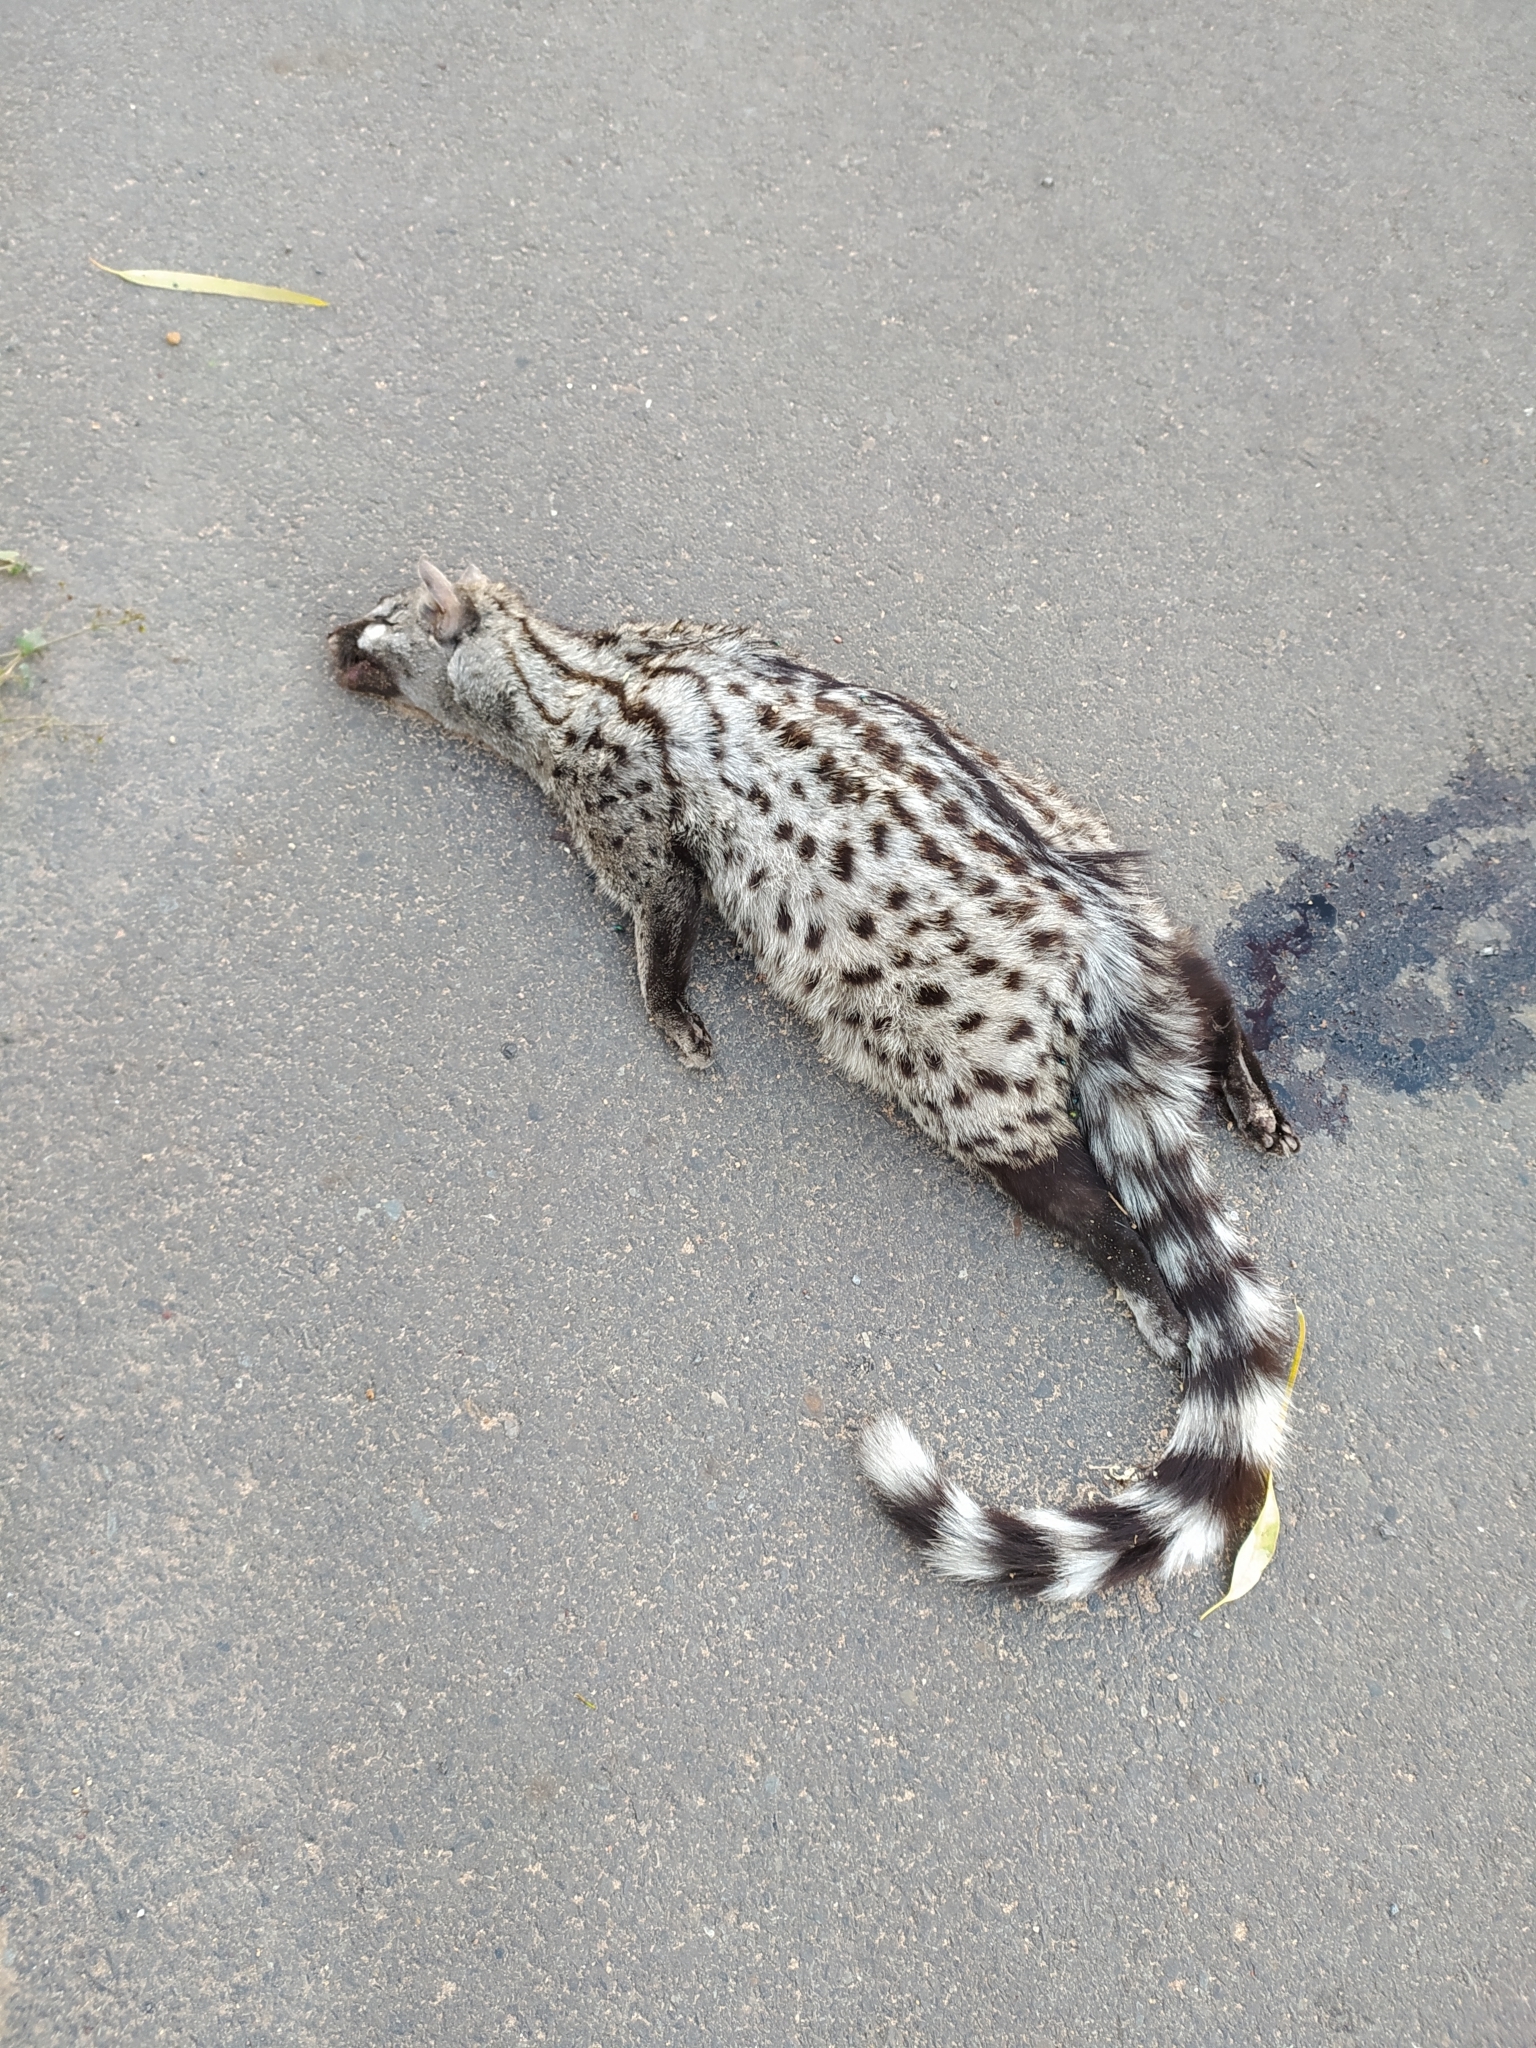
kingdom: Animalia
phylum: Chordata
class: Mammalia
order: Carnivora
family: Viverridae
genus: Genetta
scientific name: Genetta genetta
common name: Common genet
